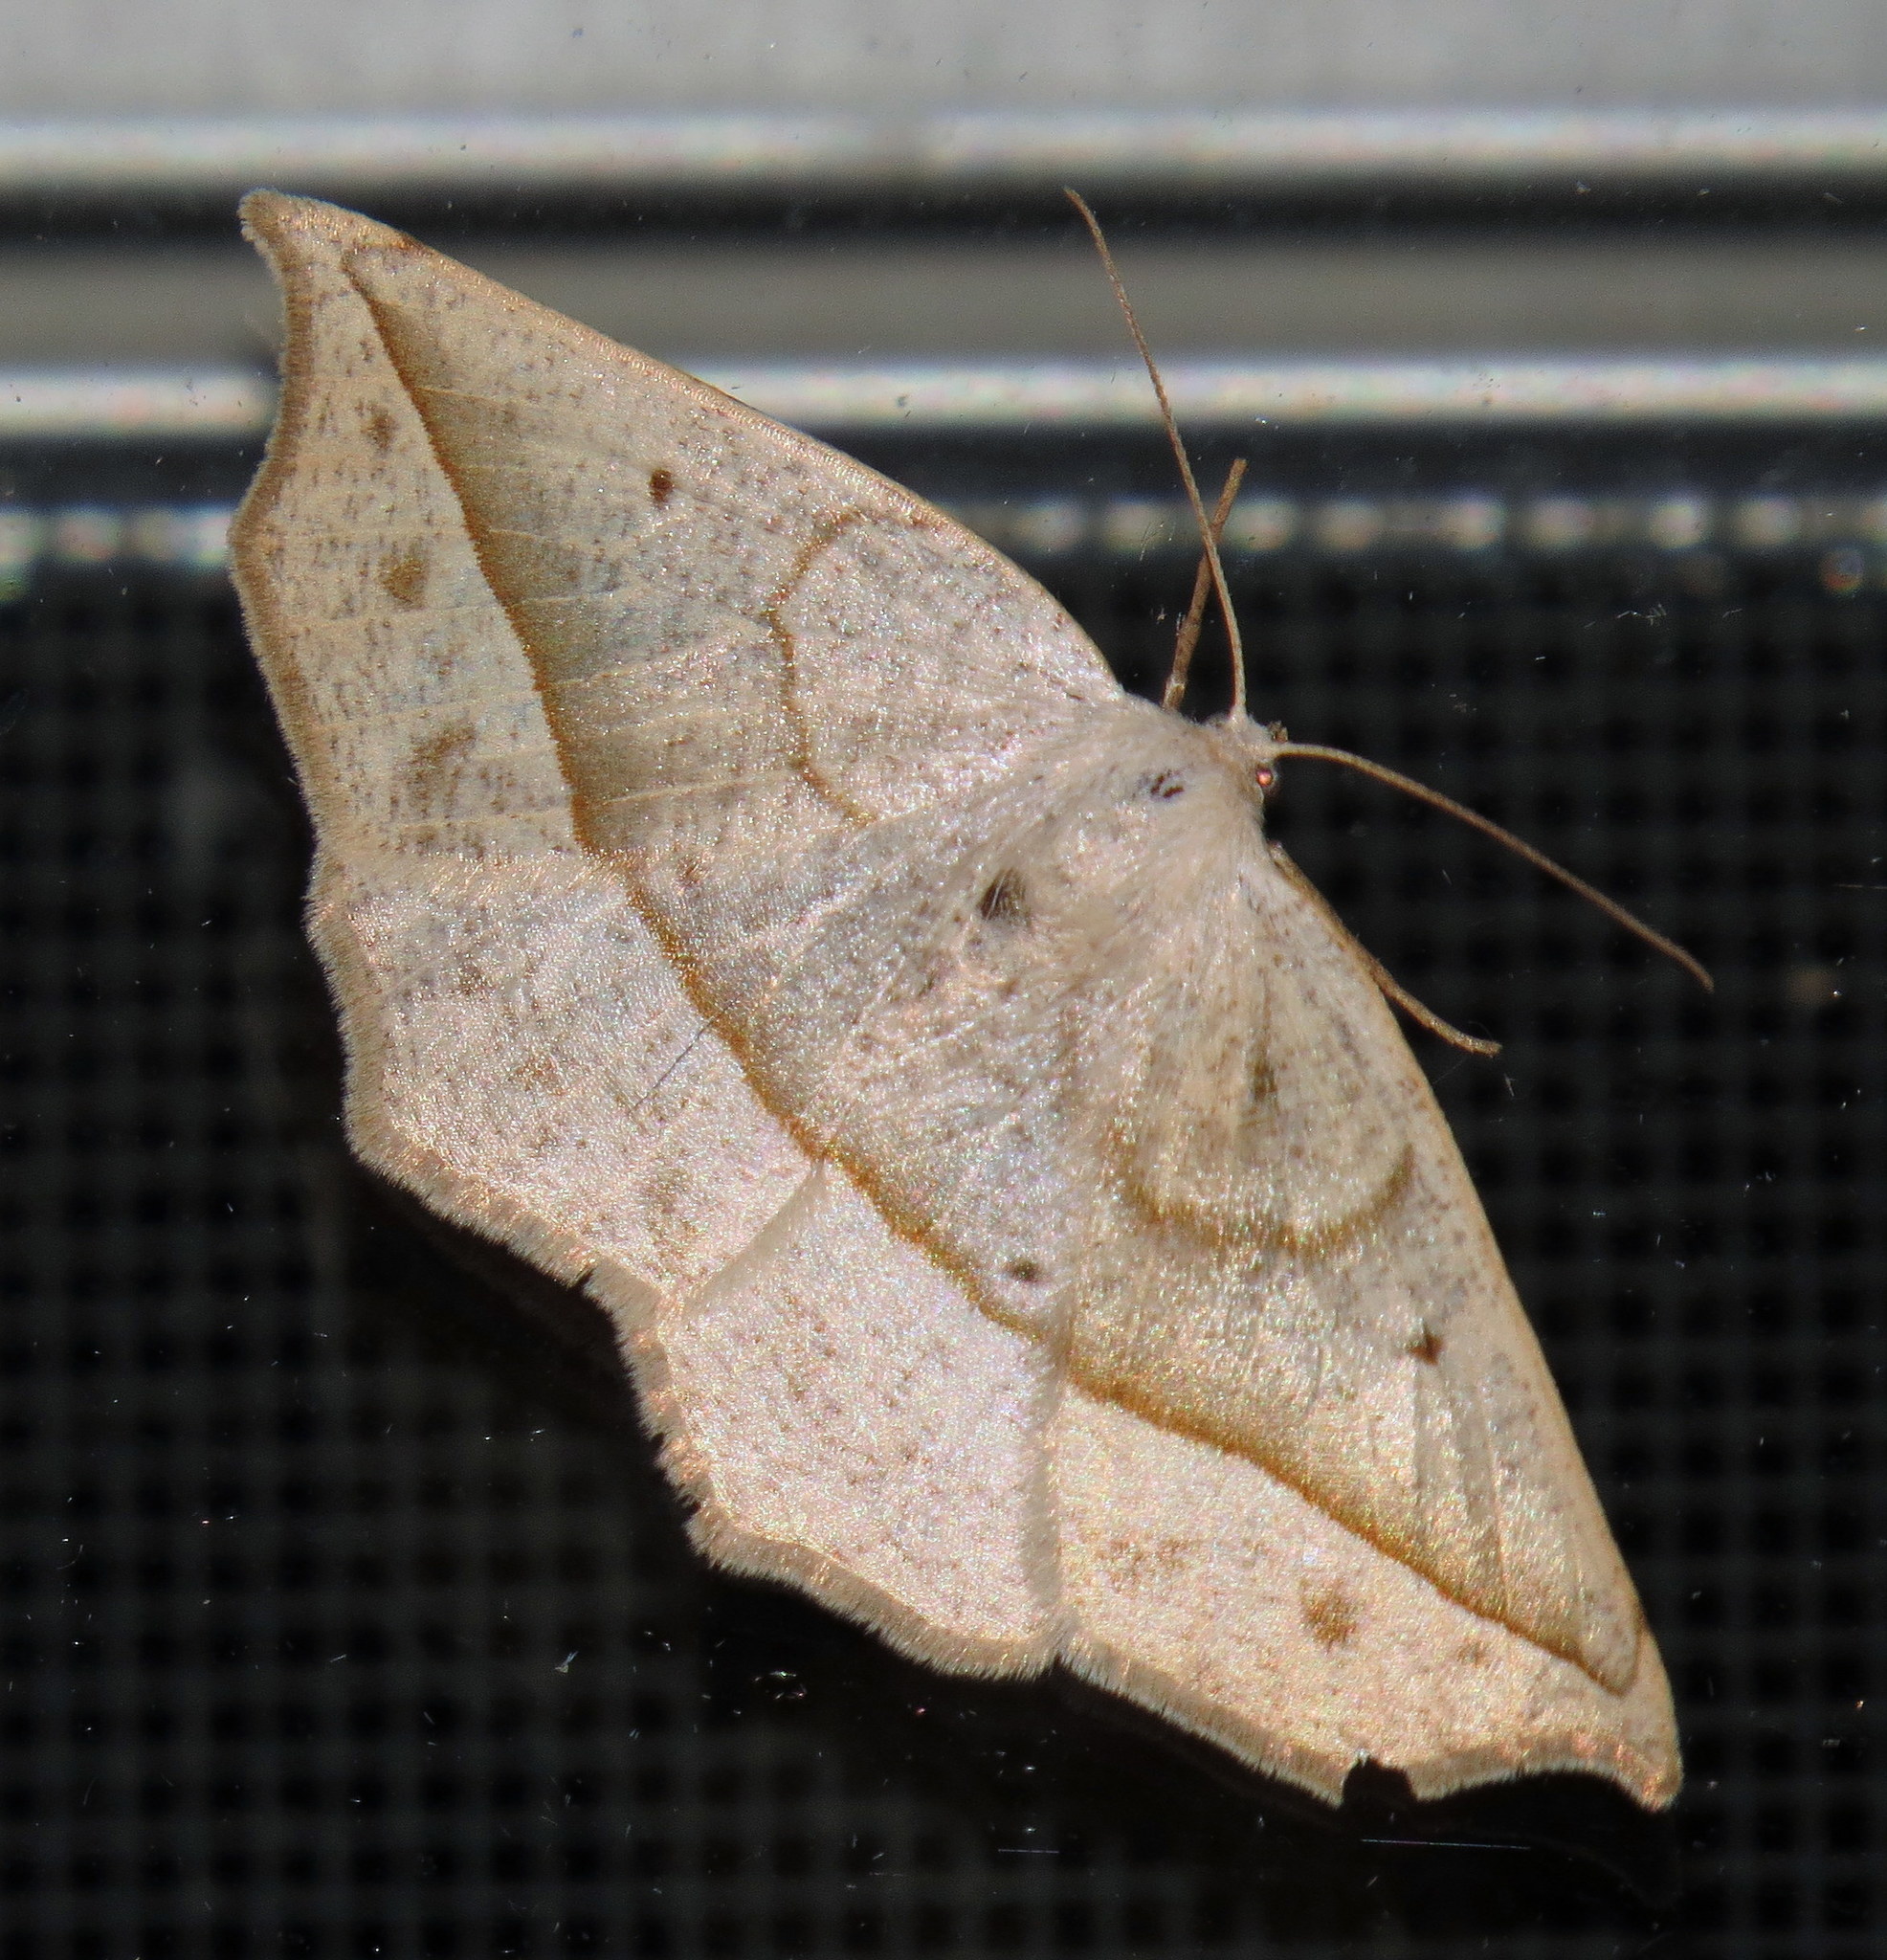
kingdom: Animalia
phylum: Arthropoda
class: Insecta
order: Lepidoptera
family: Geometridae
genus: Eusarca
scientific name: Eusarca confusaria
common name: Confused eusarca
